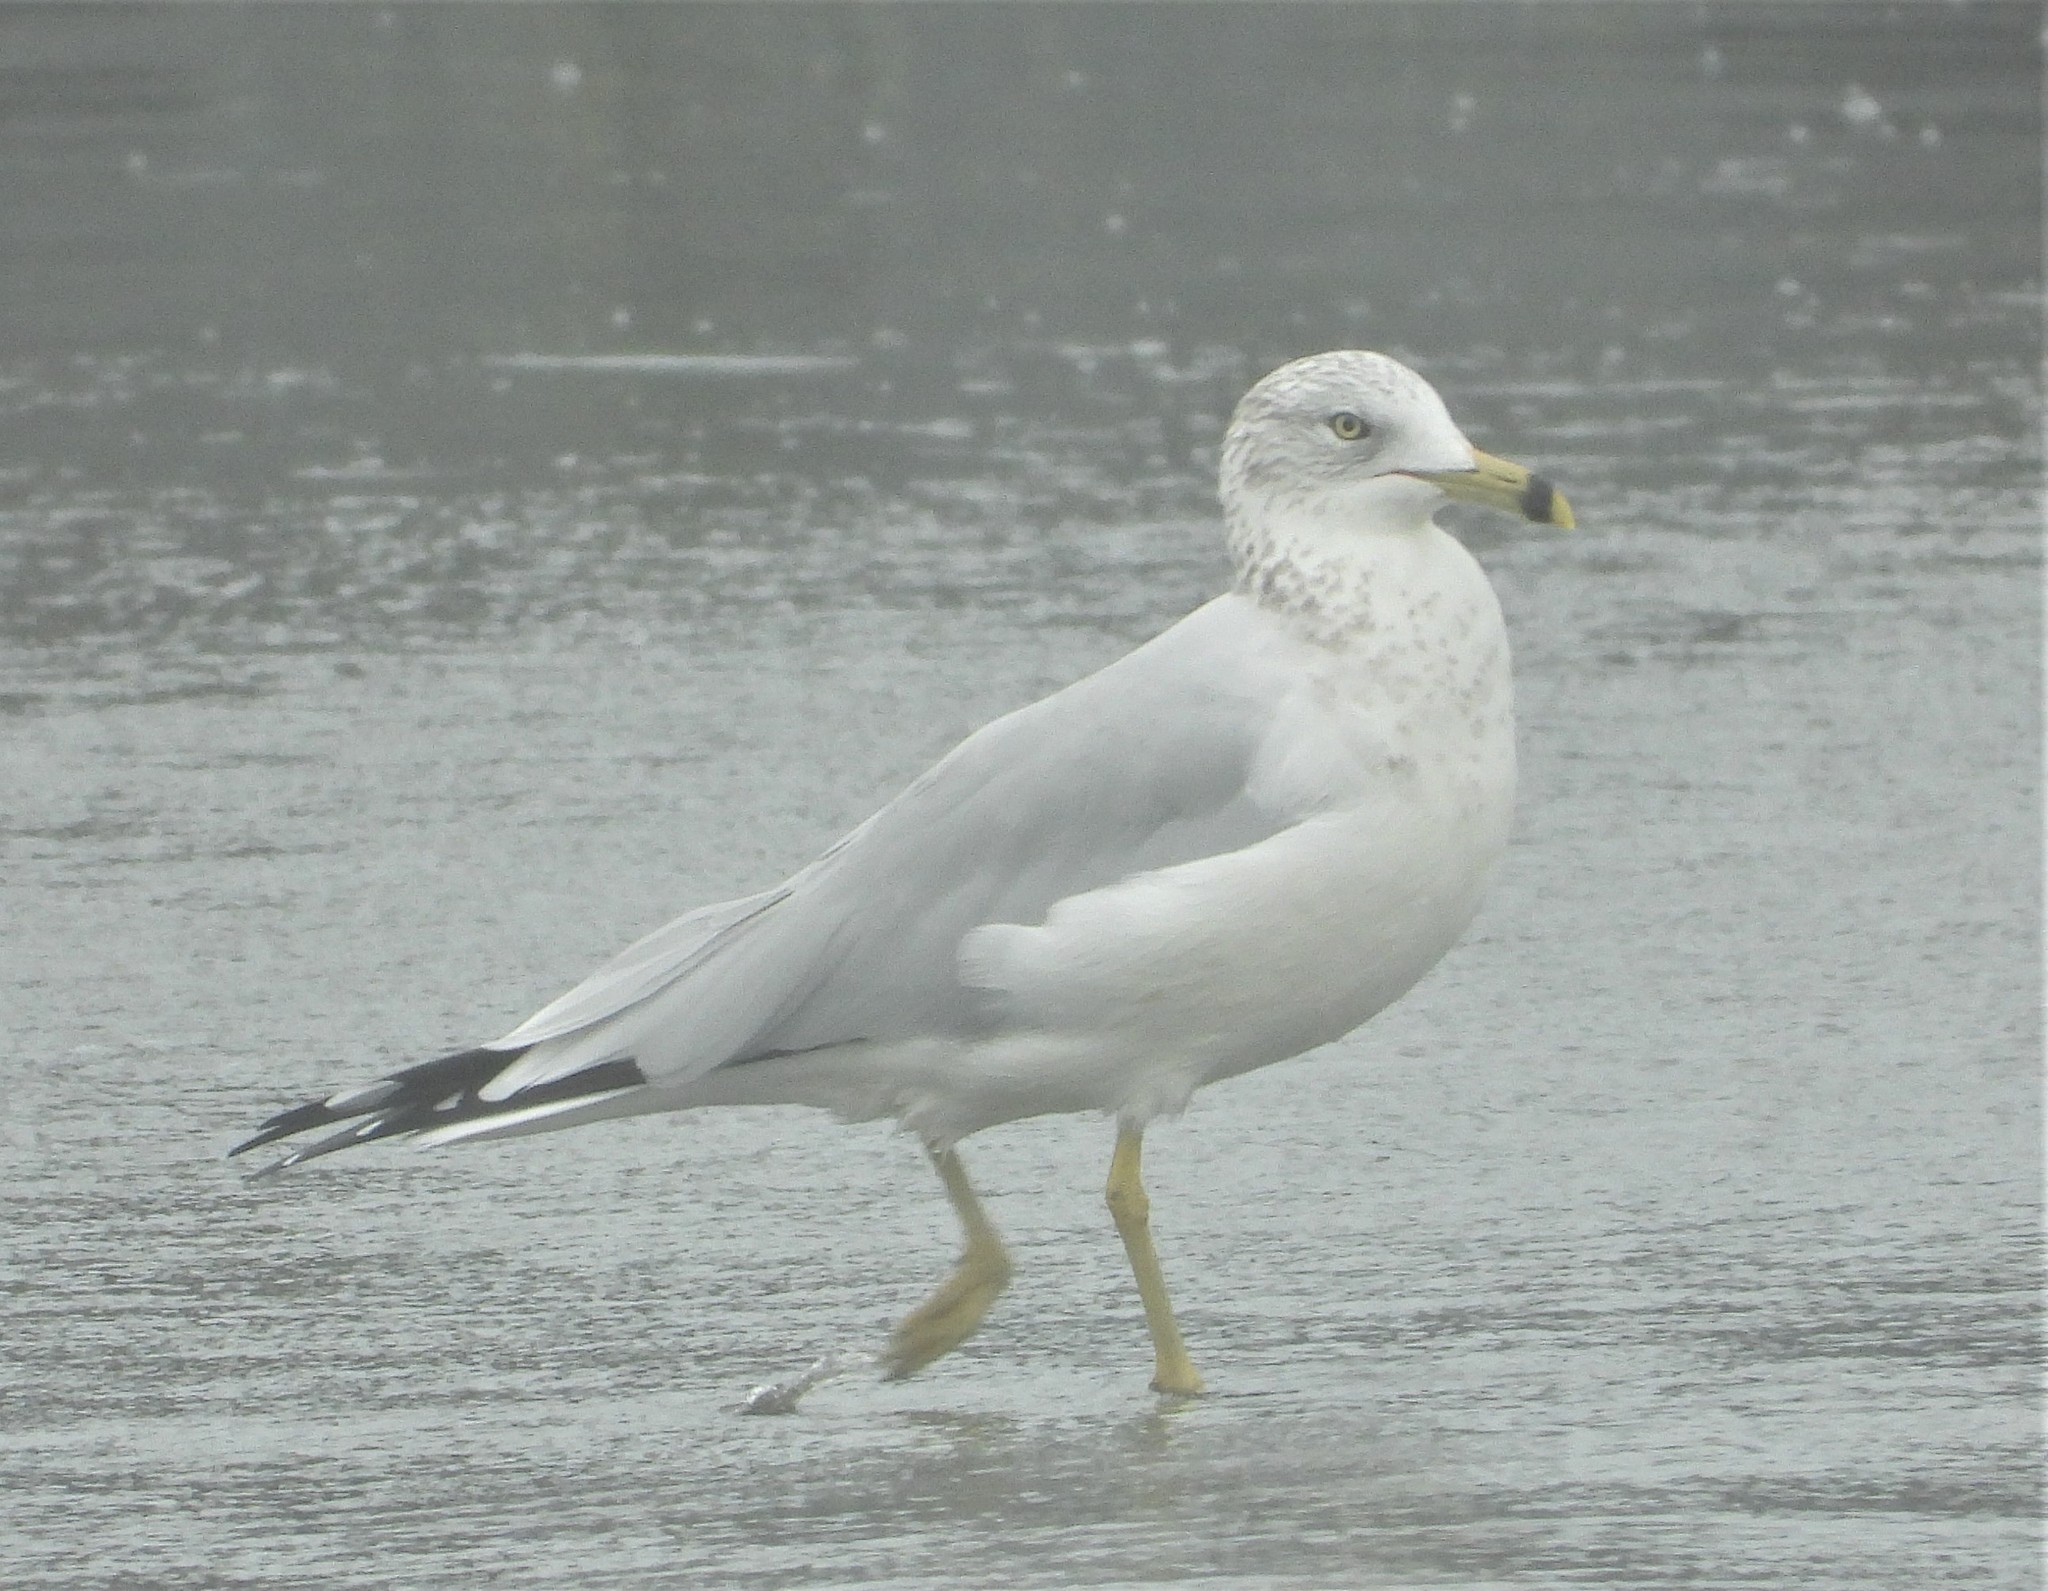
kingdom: Animalia
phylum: Chordata
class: Aves
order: Charadriiformes
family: Laridae
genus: Larus
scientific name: Larus delawarensis
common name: Ring-billed gull
